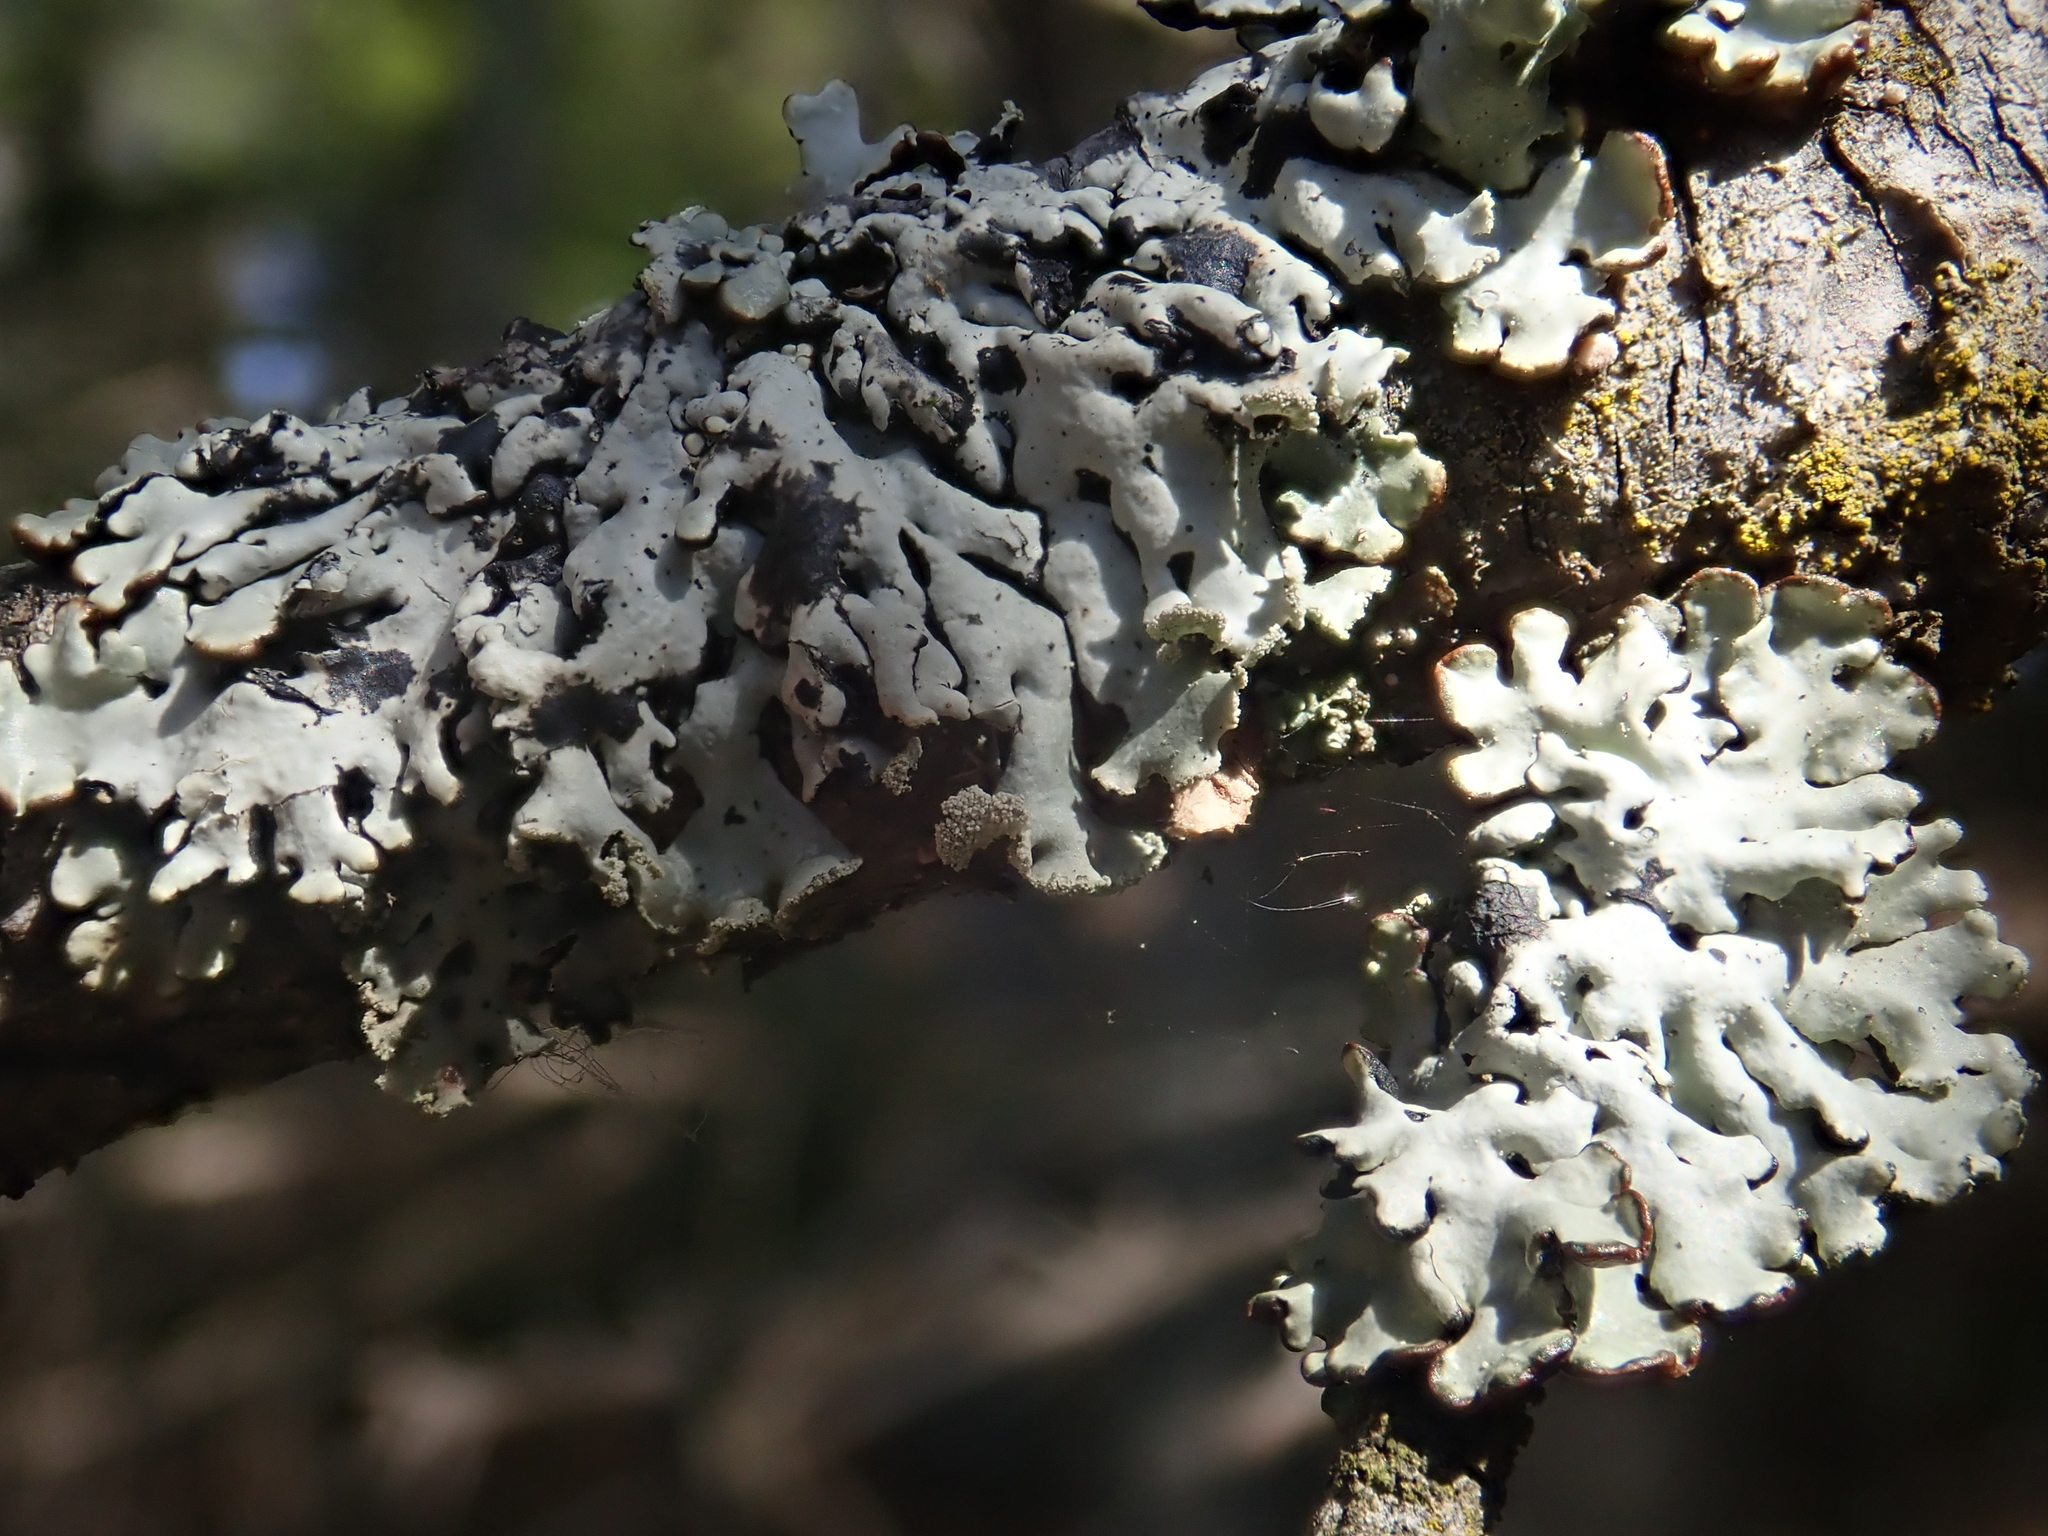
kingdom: Fungi
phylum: Ascomycota
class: Lecanoromycetes
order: Lecanorales
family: Parmeliaceae
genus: Hypogymnia
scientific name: Hypogymnia physodes
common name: Dark crottle
